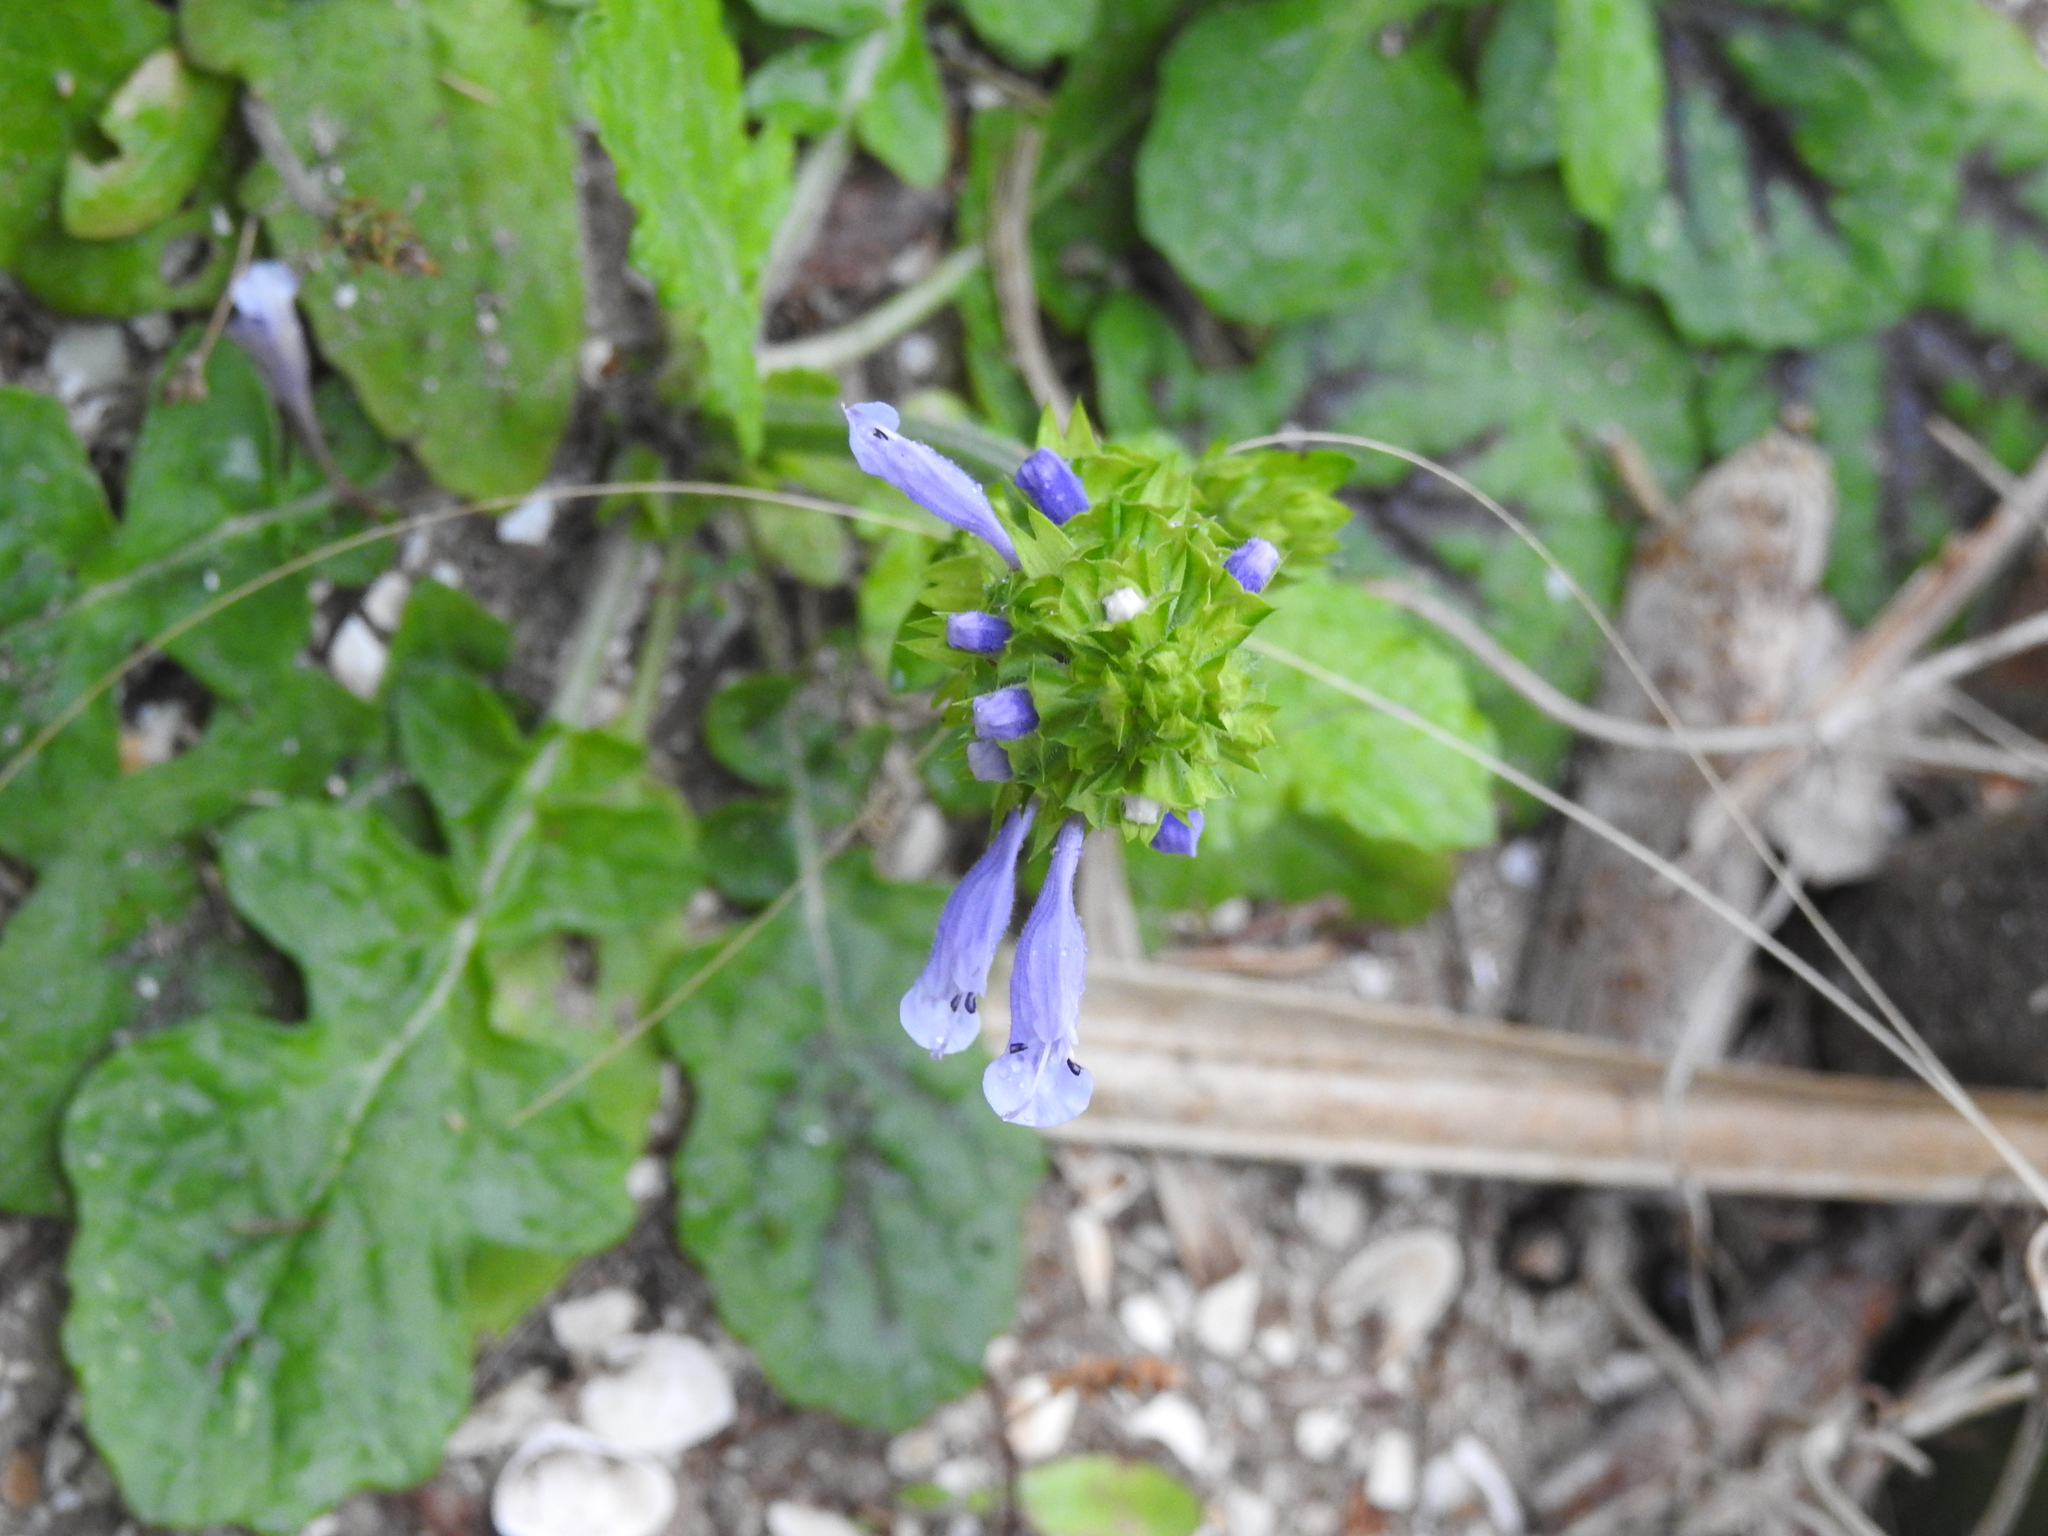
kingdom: Plantae
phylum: Tracheophyta
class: Magnoliopsida
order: Lamiales
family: Lamiaceae
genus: Salvia
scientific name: Salvia lyrata
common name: Cancerweed
